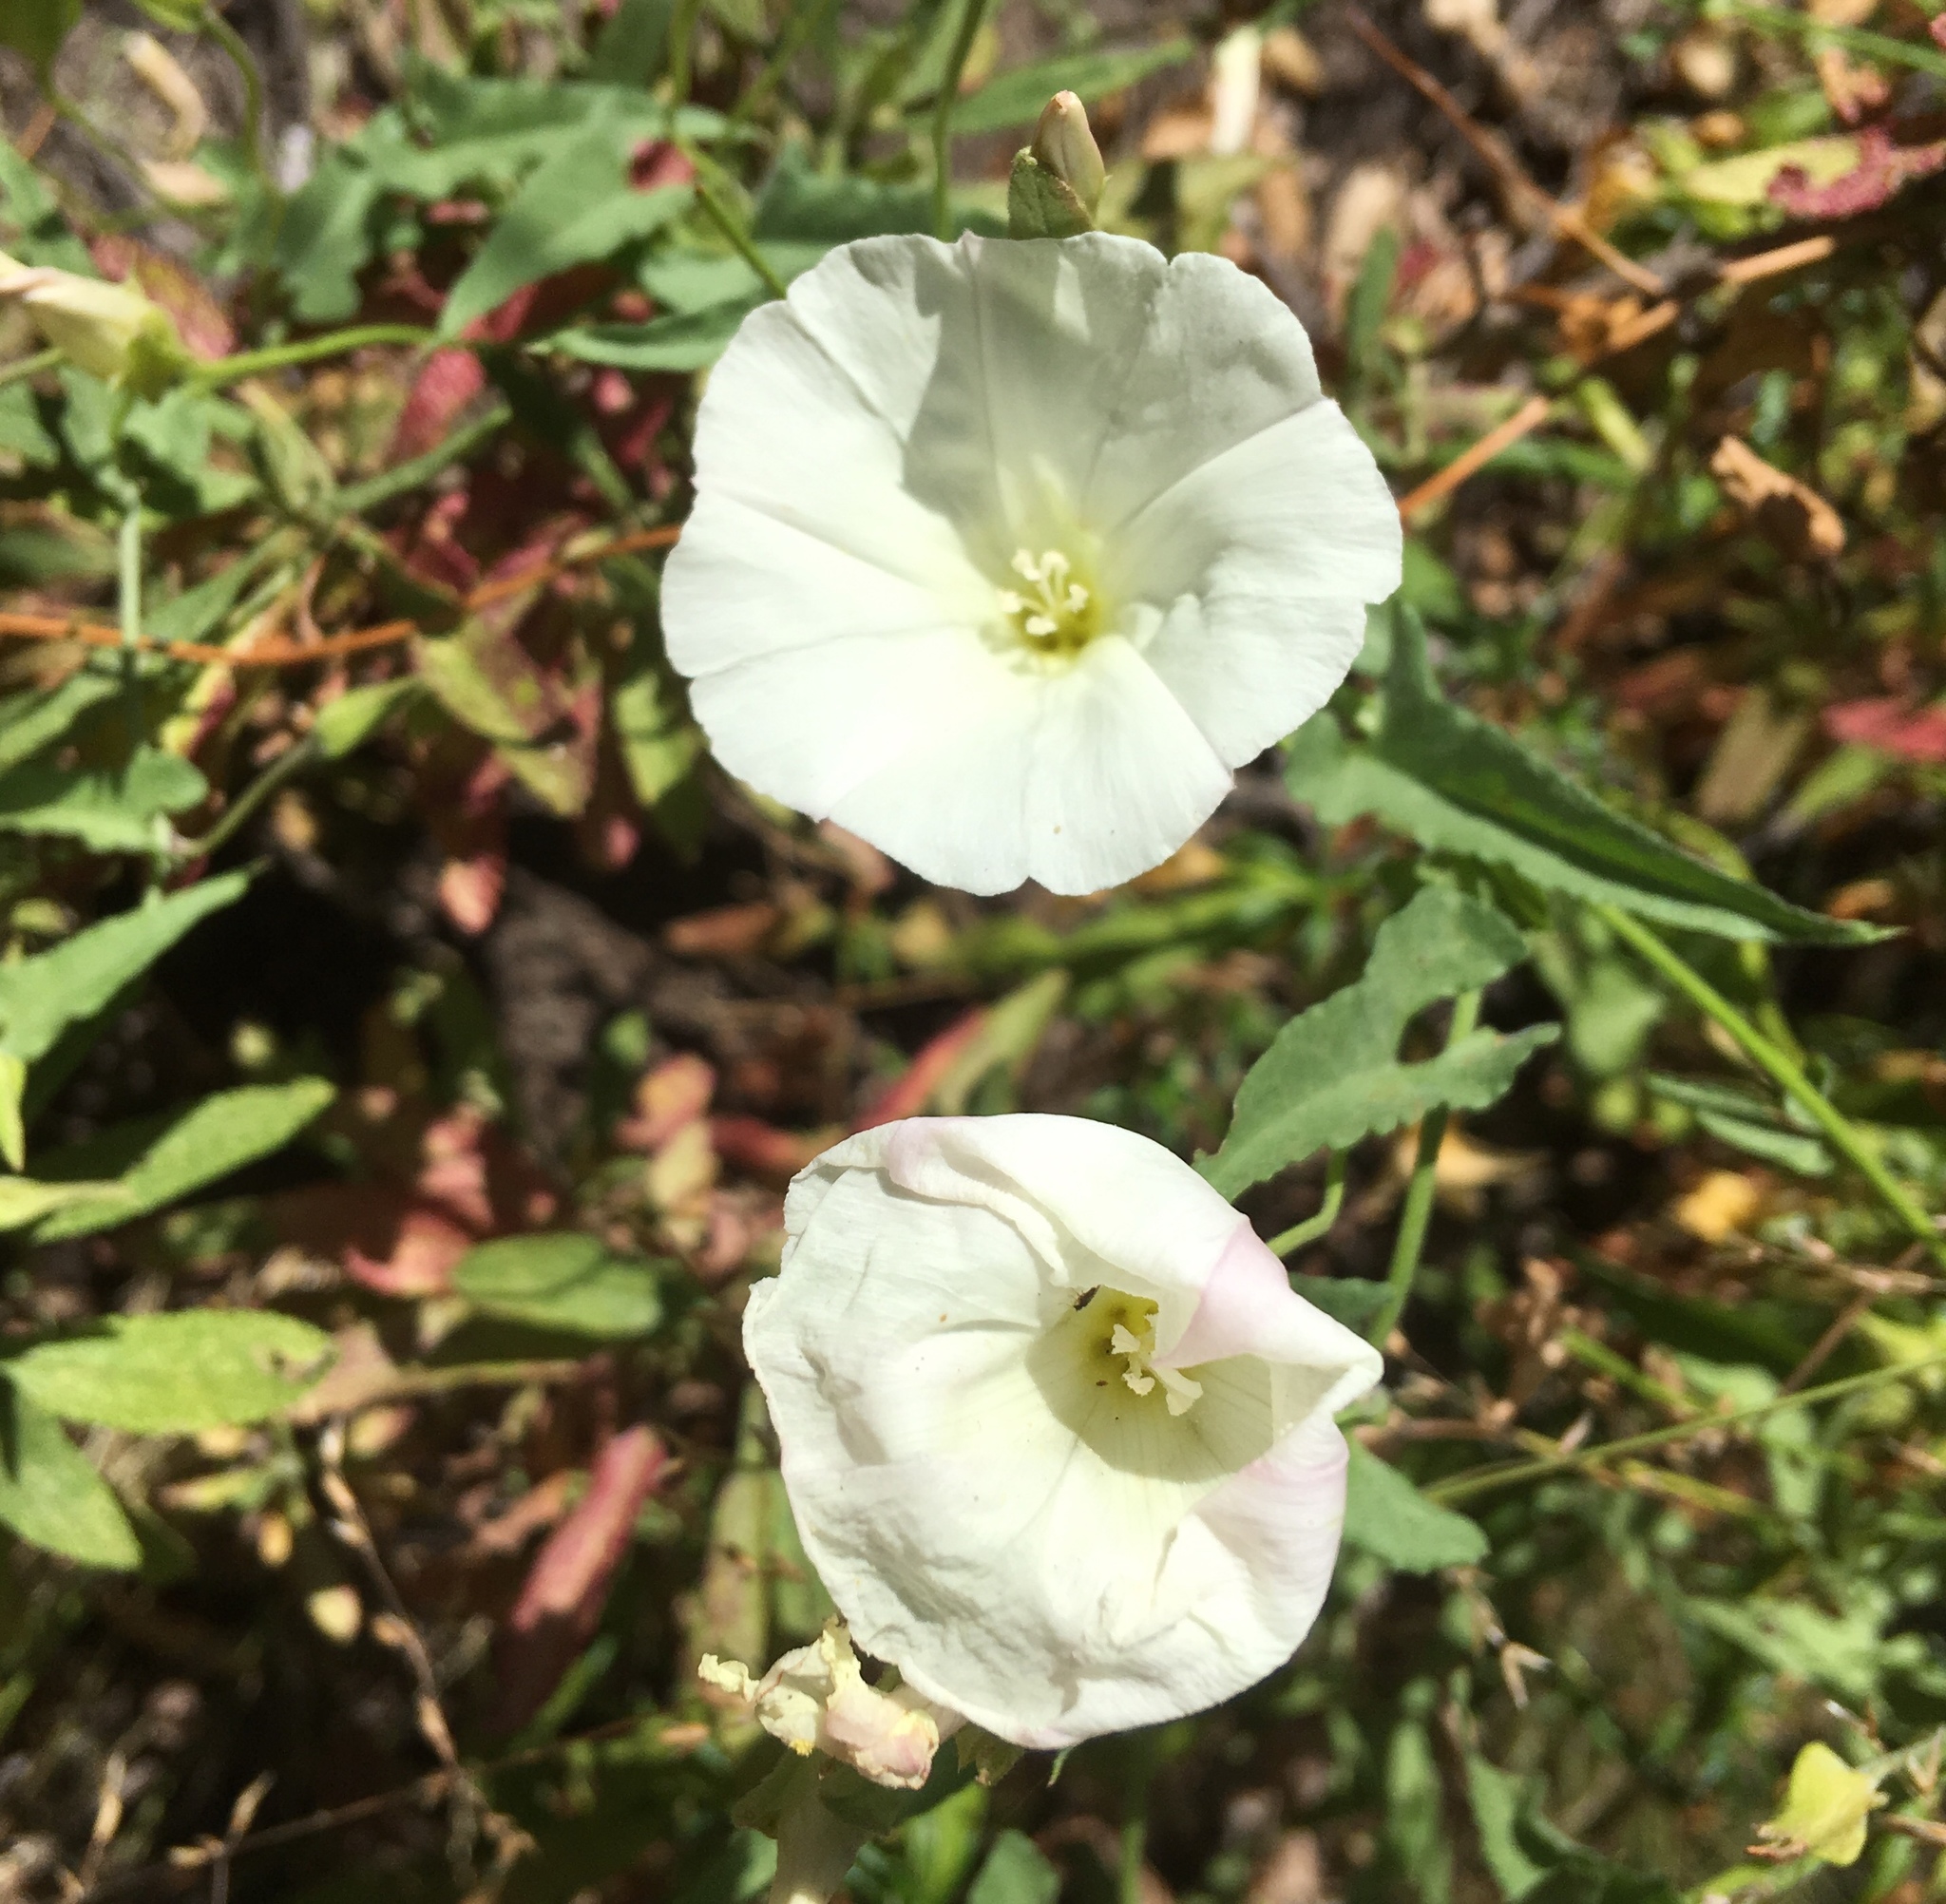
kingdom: Plantae
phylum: Tracheophyta
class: Magnoliopsida
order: Solanales
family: Convolvulaceae
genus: Calystegia
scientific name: Calystegia macrostegia
